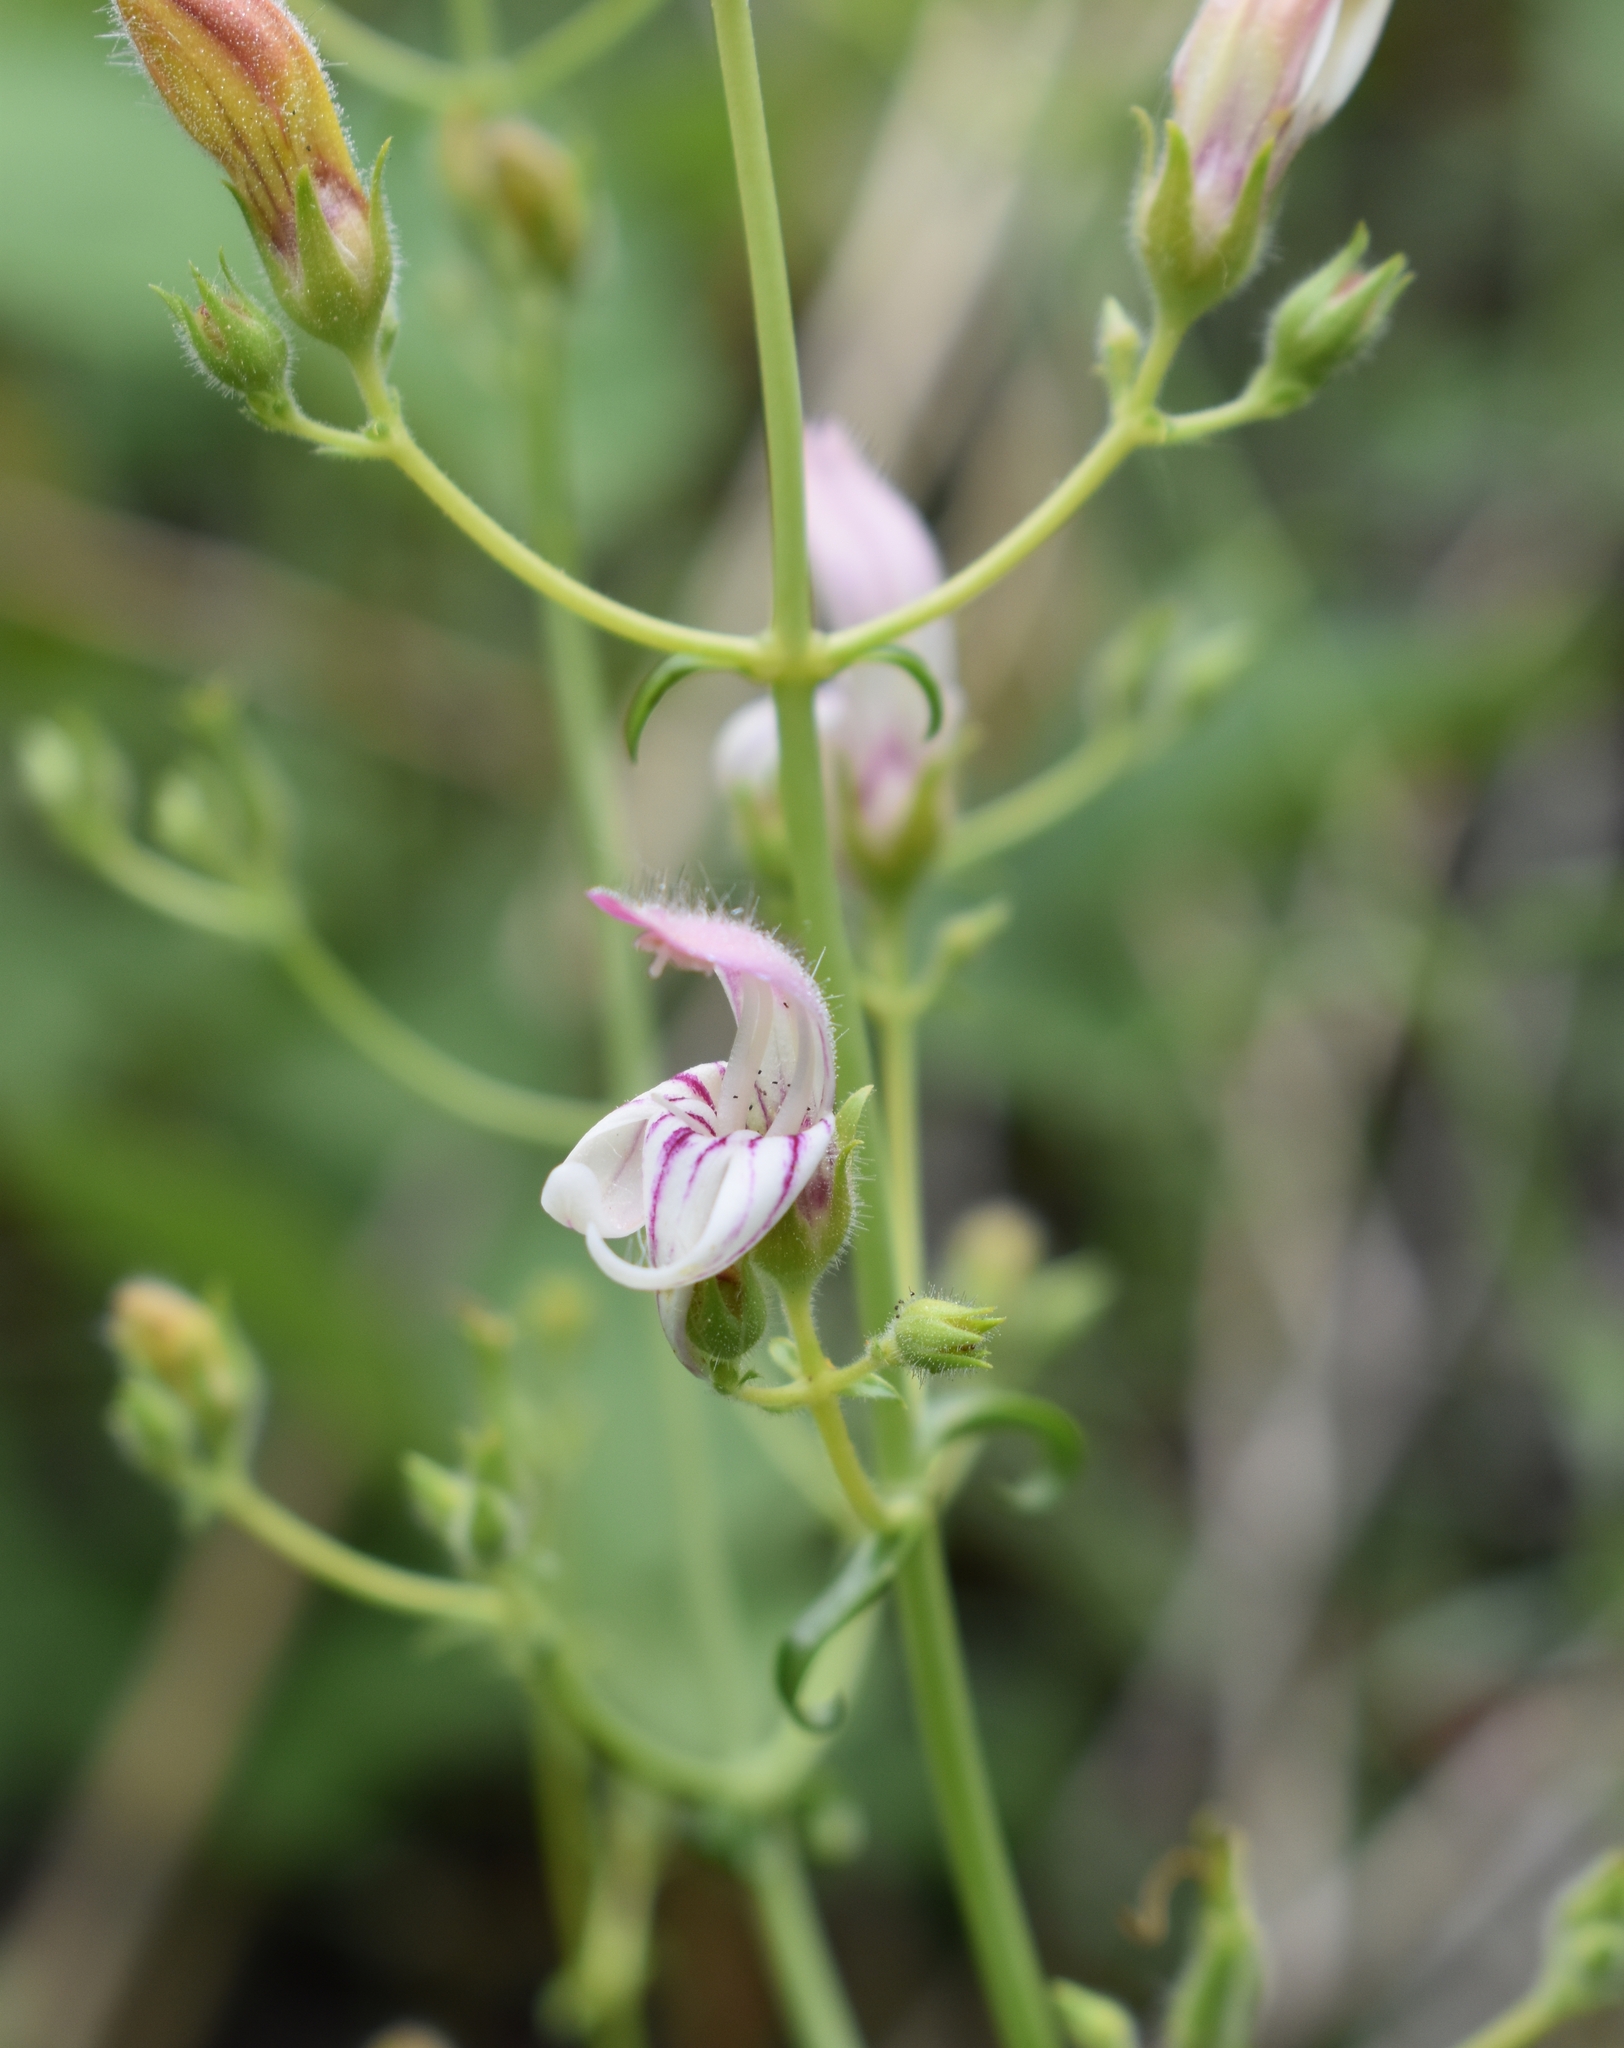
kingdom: Plantae
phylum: Tracheophyta
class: Magnoliopsida
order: Lamiales
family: Plantaginaceae
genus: Keckiella
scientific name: Keckiella breviflora
